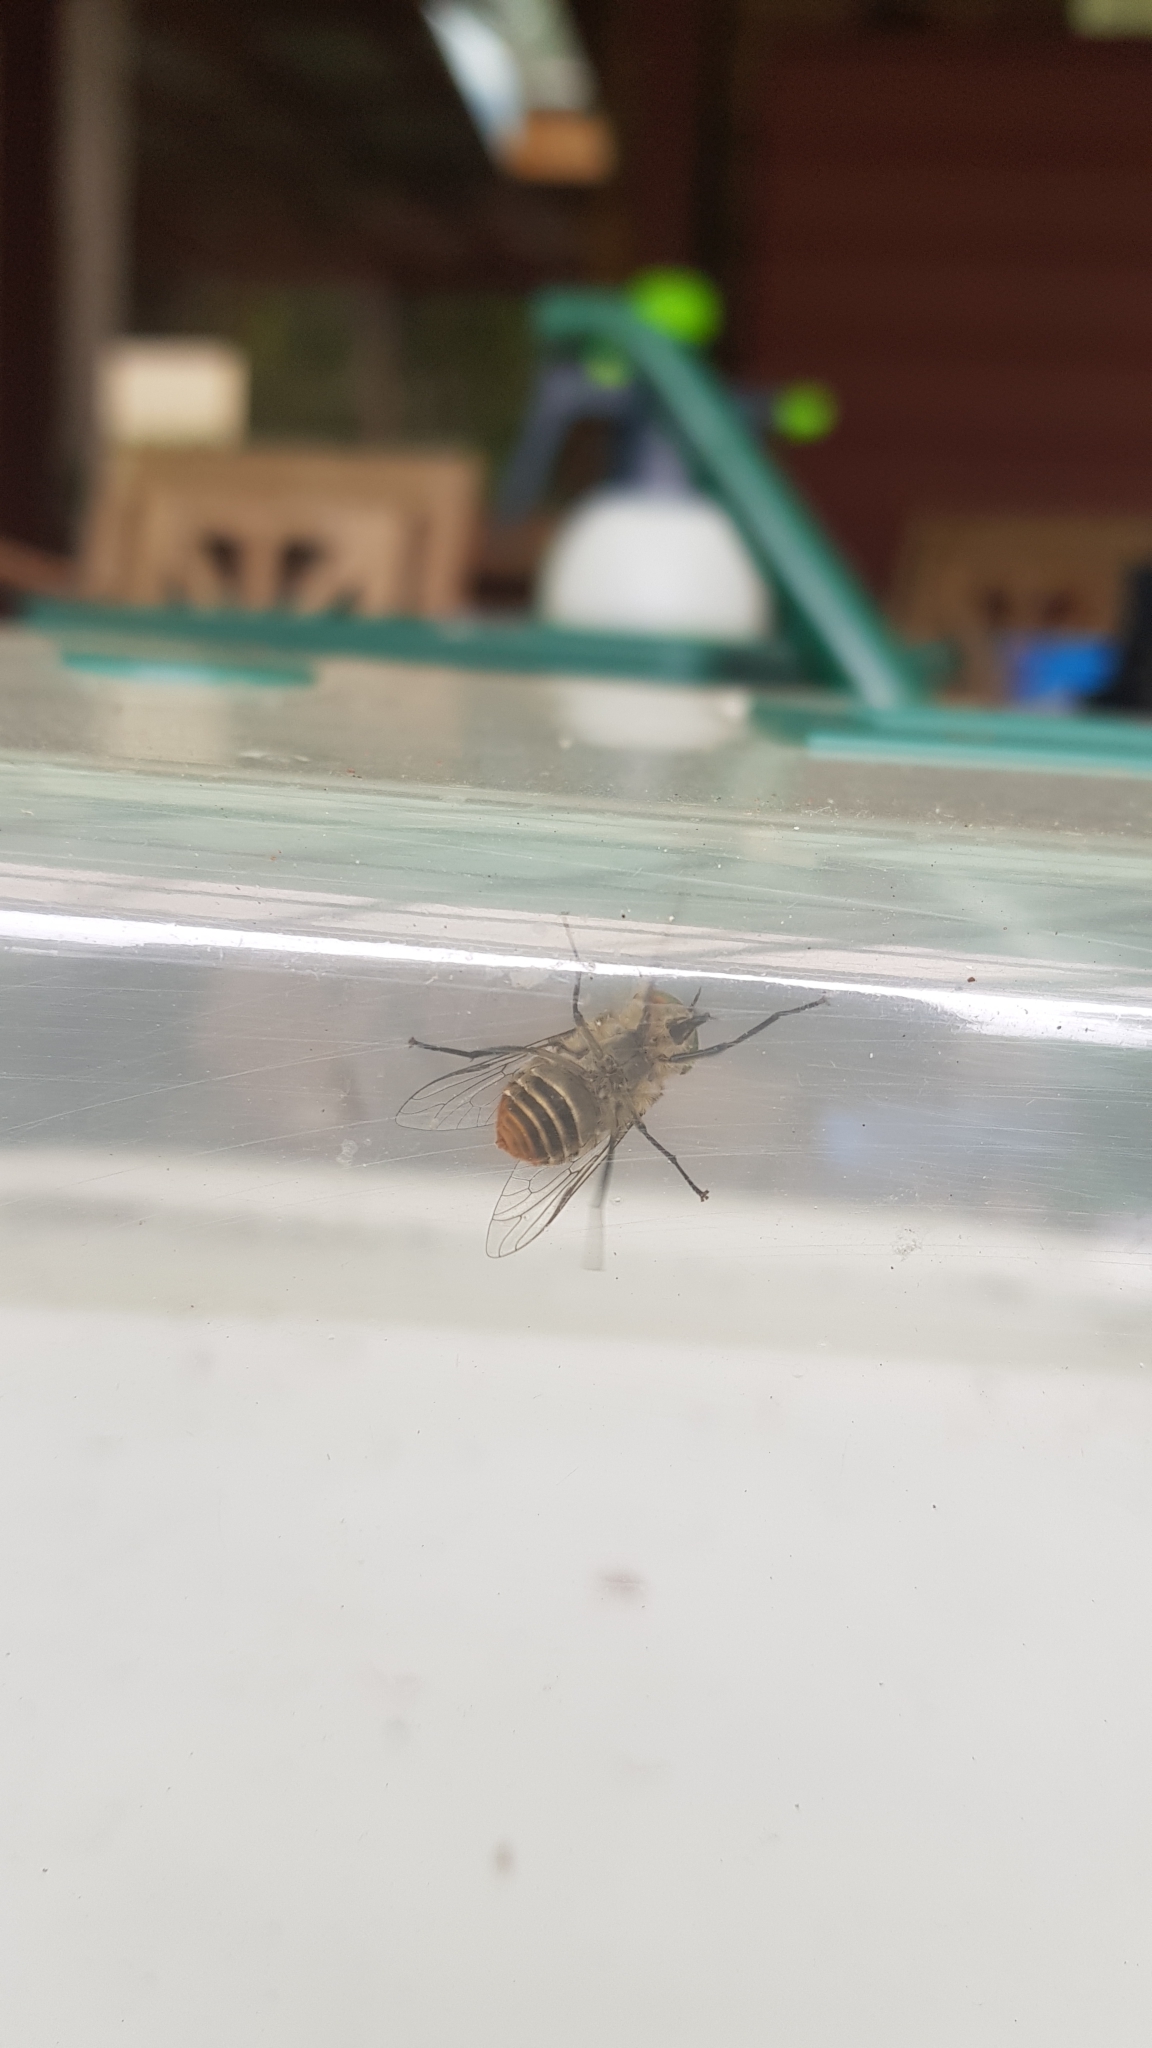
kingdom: Animalia
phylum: Arthropoda
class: Insecta
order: Diptera
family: Tabanidae
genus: Scaptia
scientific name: Scaptia auriflua
